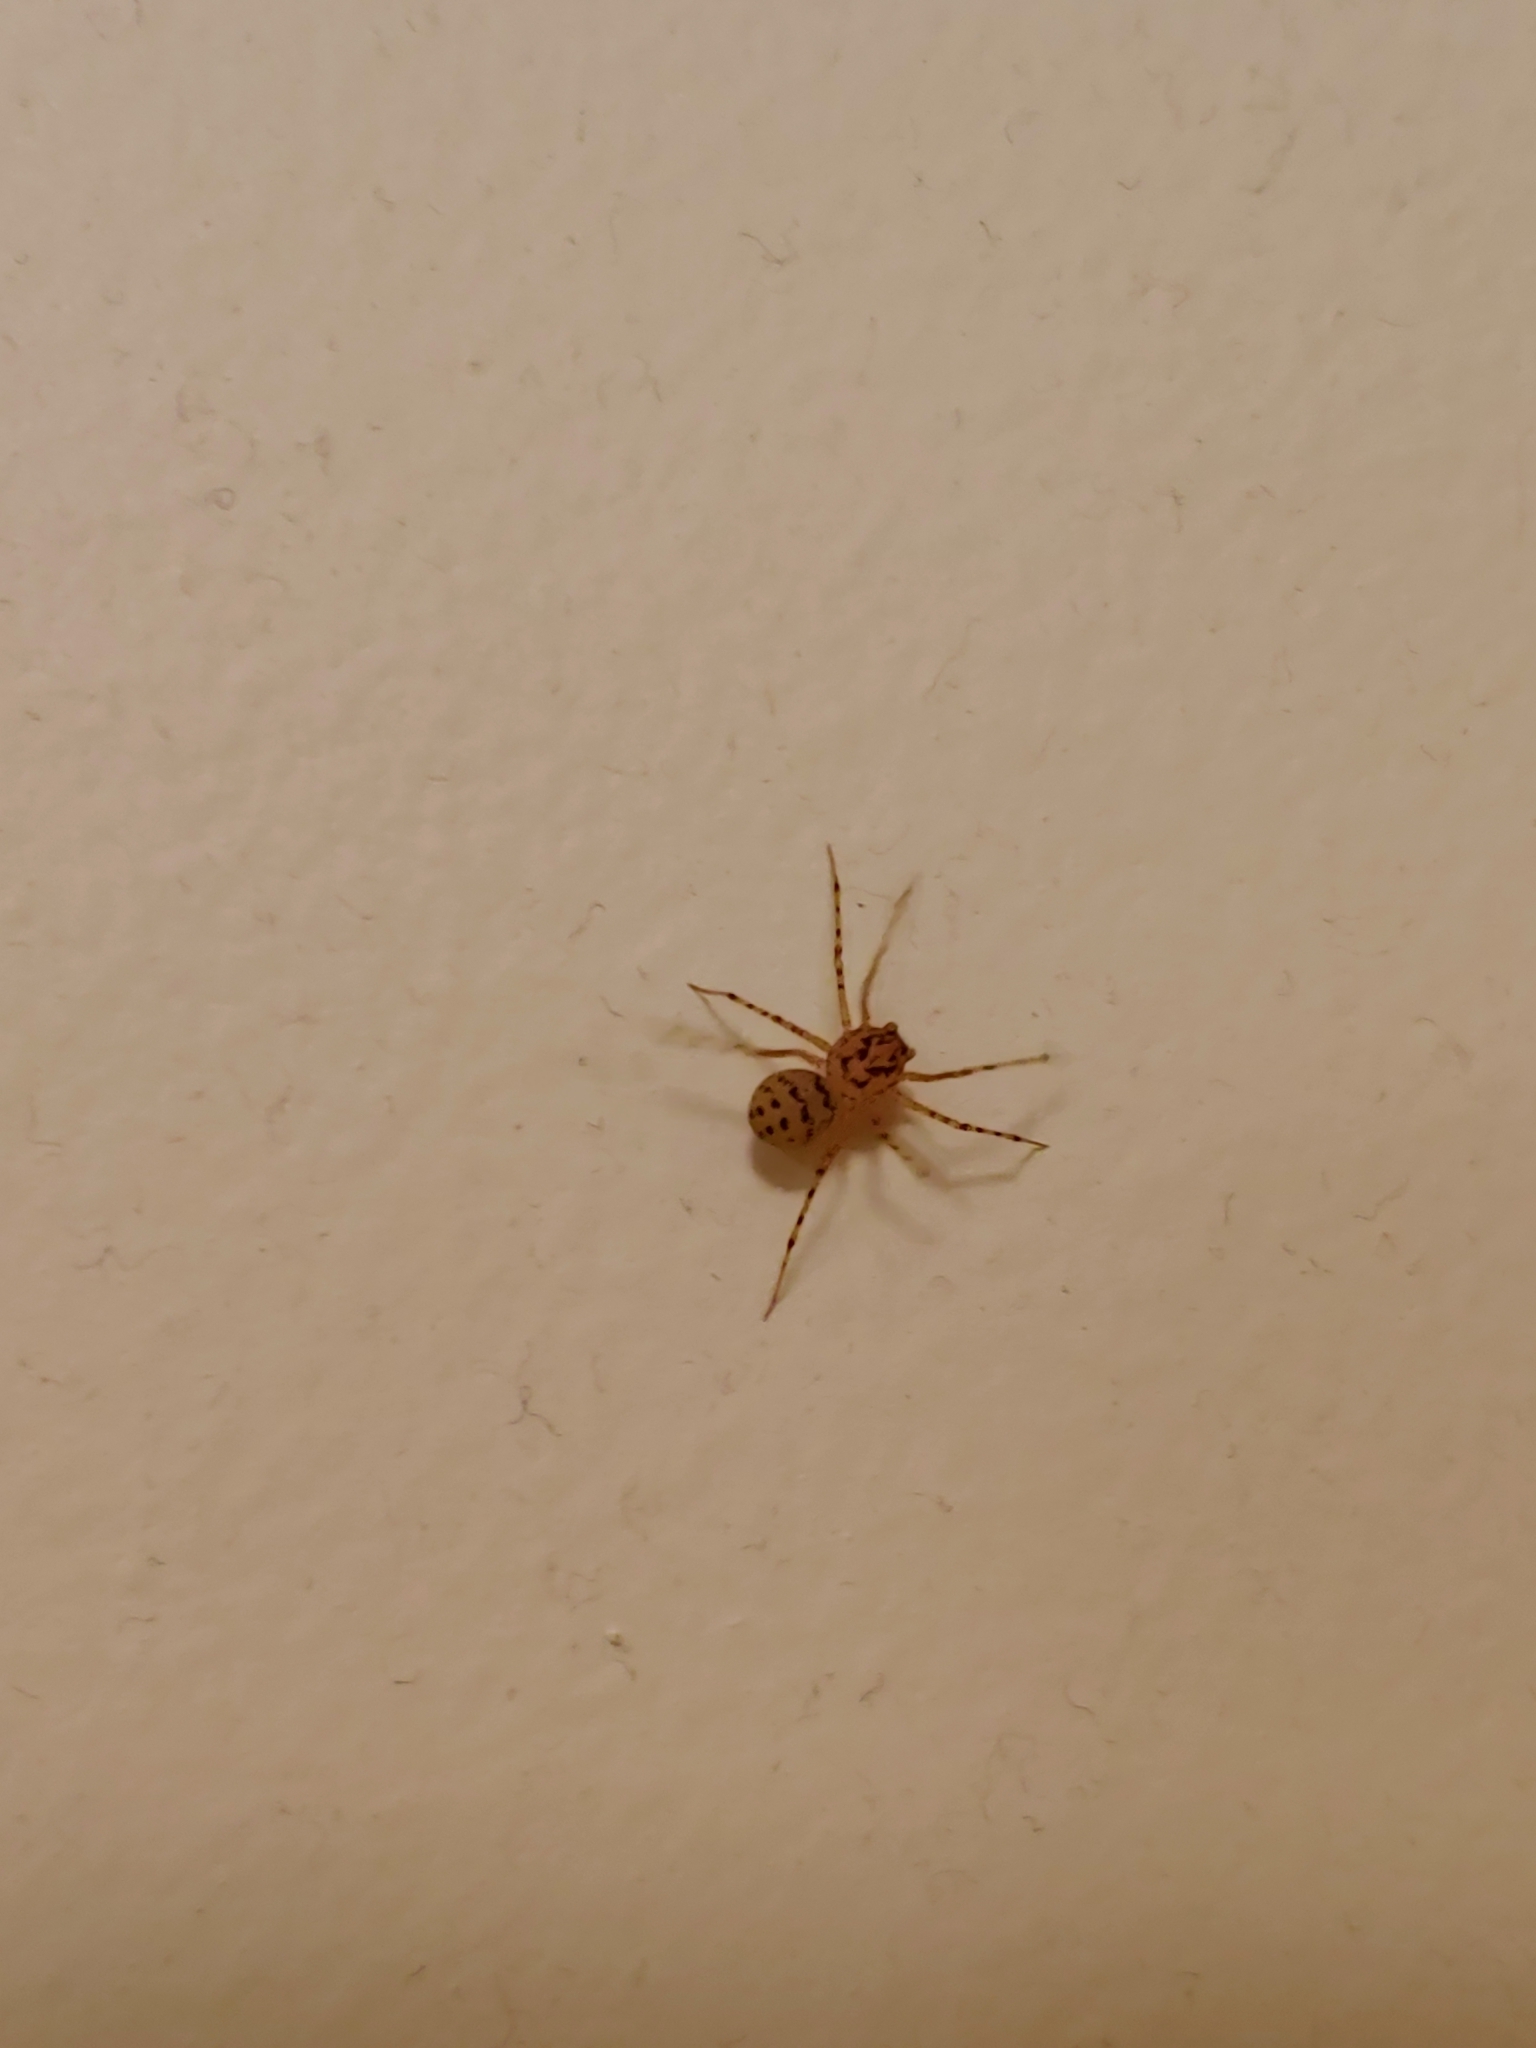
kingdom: Animalia
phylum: Arthropoda
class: Arachnida
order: Araneae
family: Scytodidae
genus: Scytodes
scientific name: Scytodes thoracica
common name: Spitting spider
